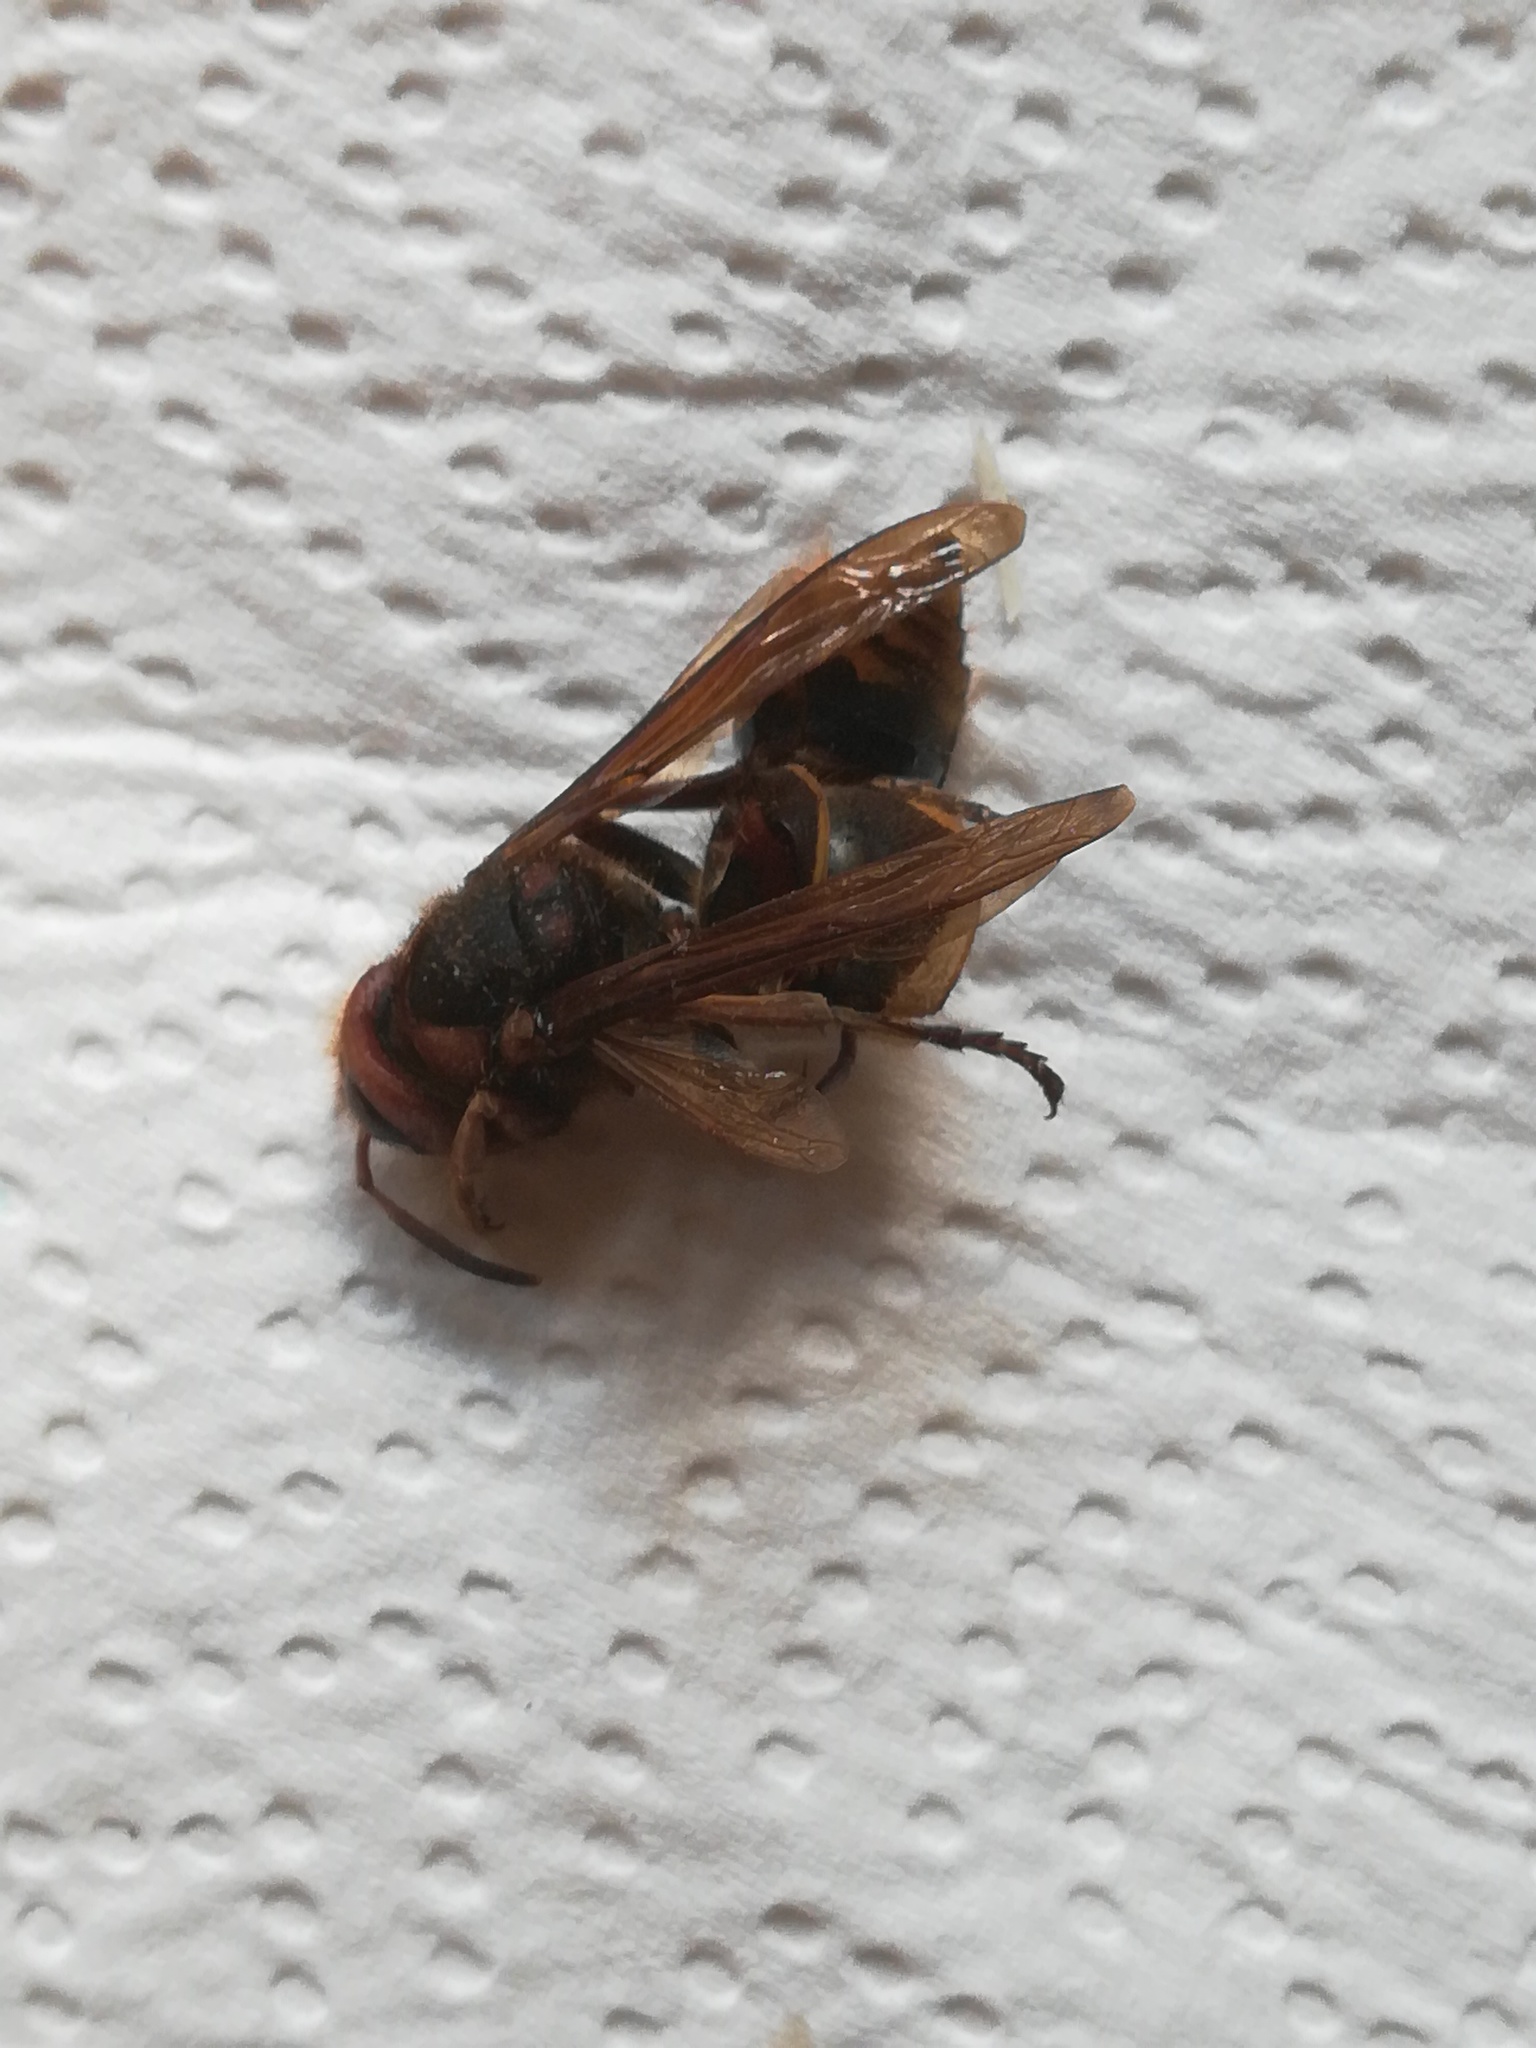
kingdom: Animalia
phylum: Arthropoda
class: Insecta
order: Hymenoptera
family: Vespidae
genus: Vespa
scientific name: Vespa crabro
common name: Hornet
